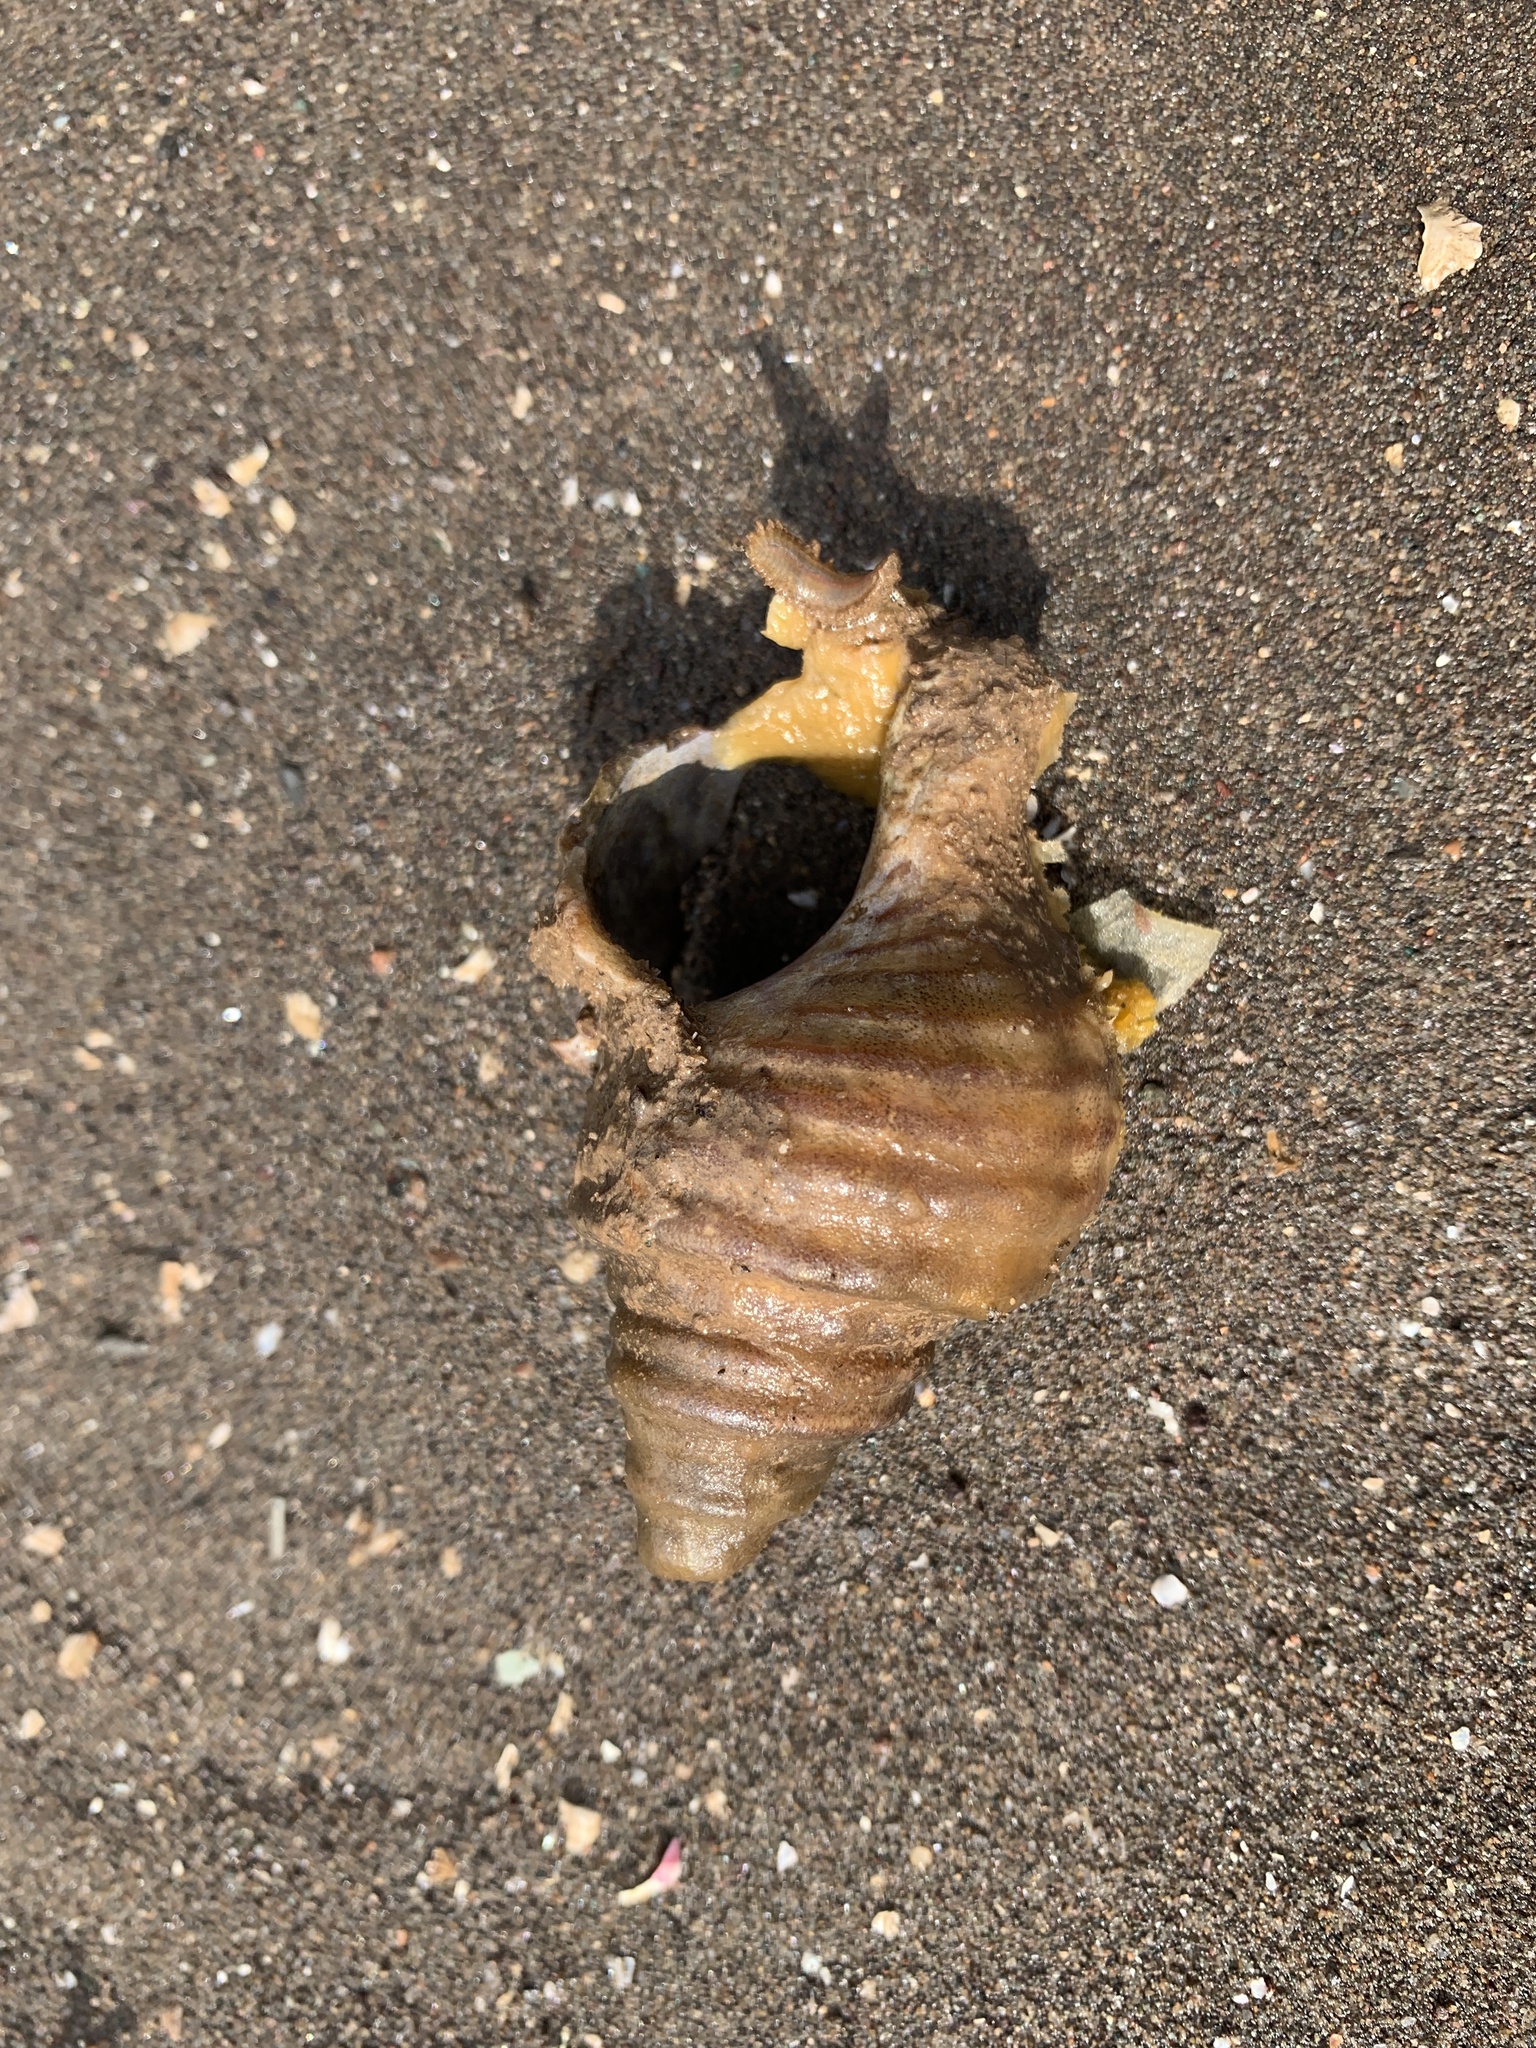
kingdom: Animalia
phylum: Mollusca
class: Gastropoda
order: Neogastropoda
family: Buccinidae
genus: Neptunea
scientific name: Neptunea decemcostata
